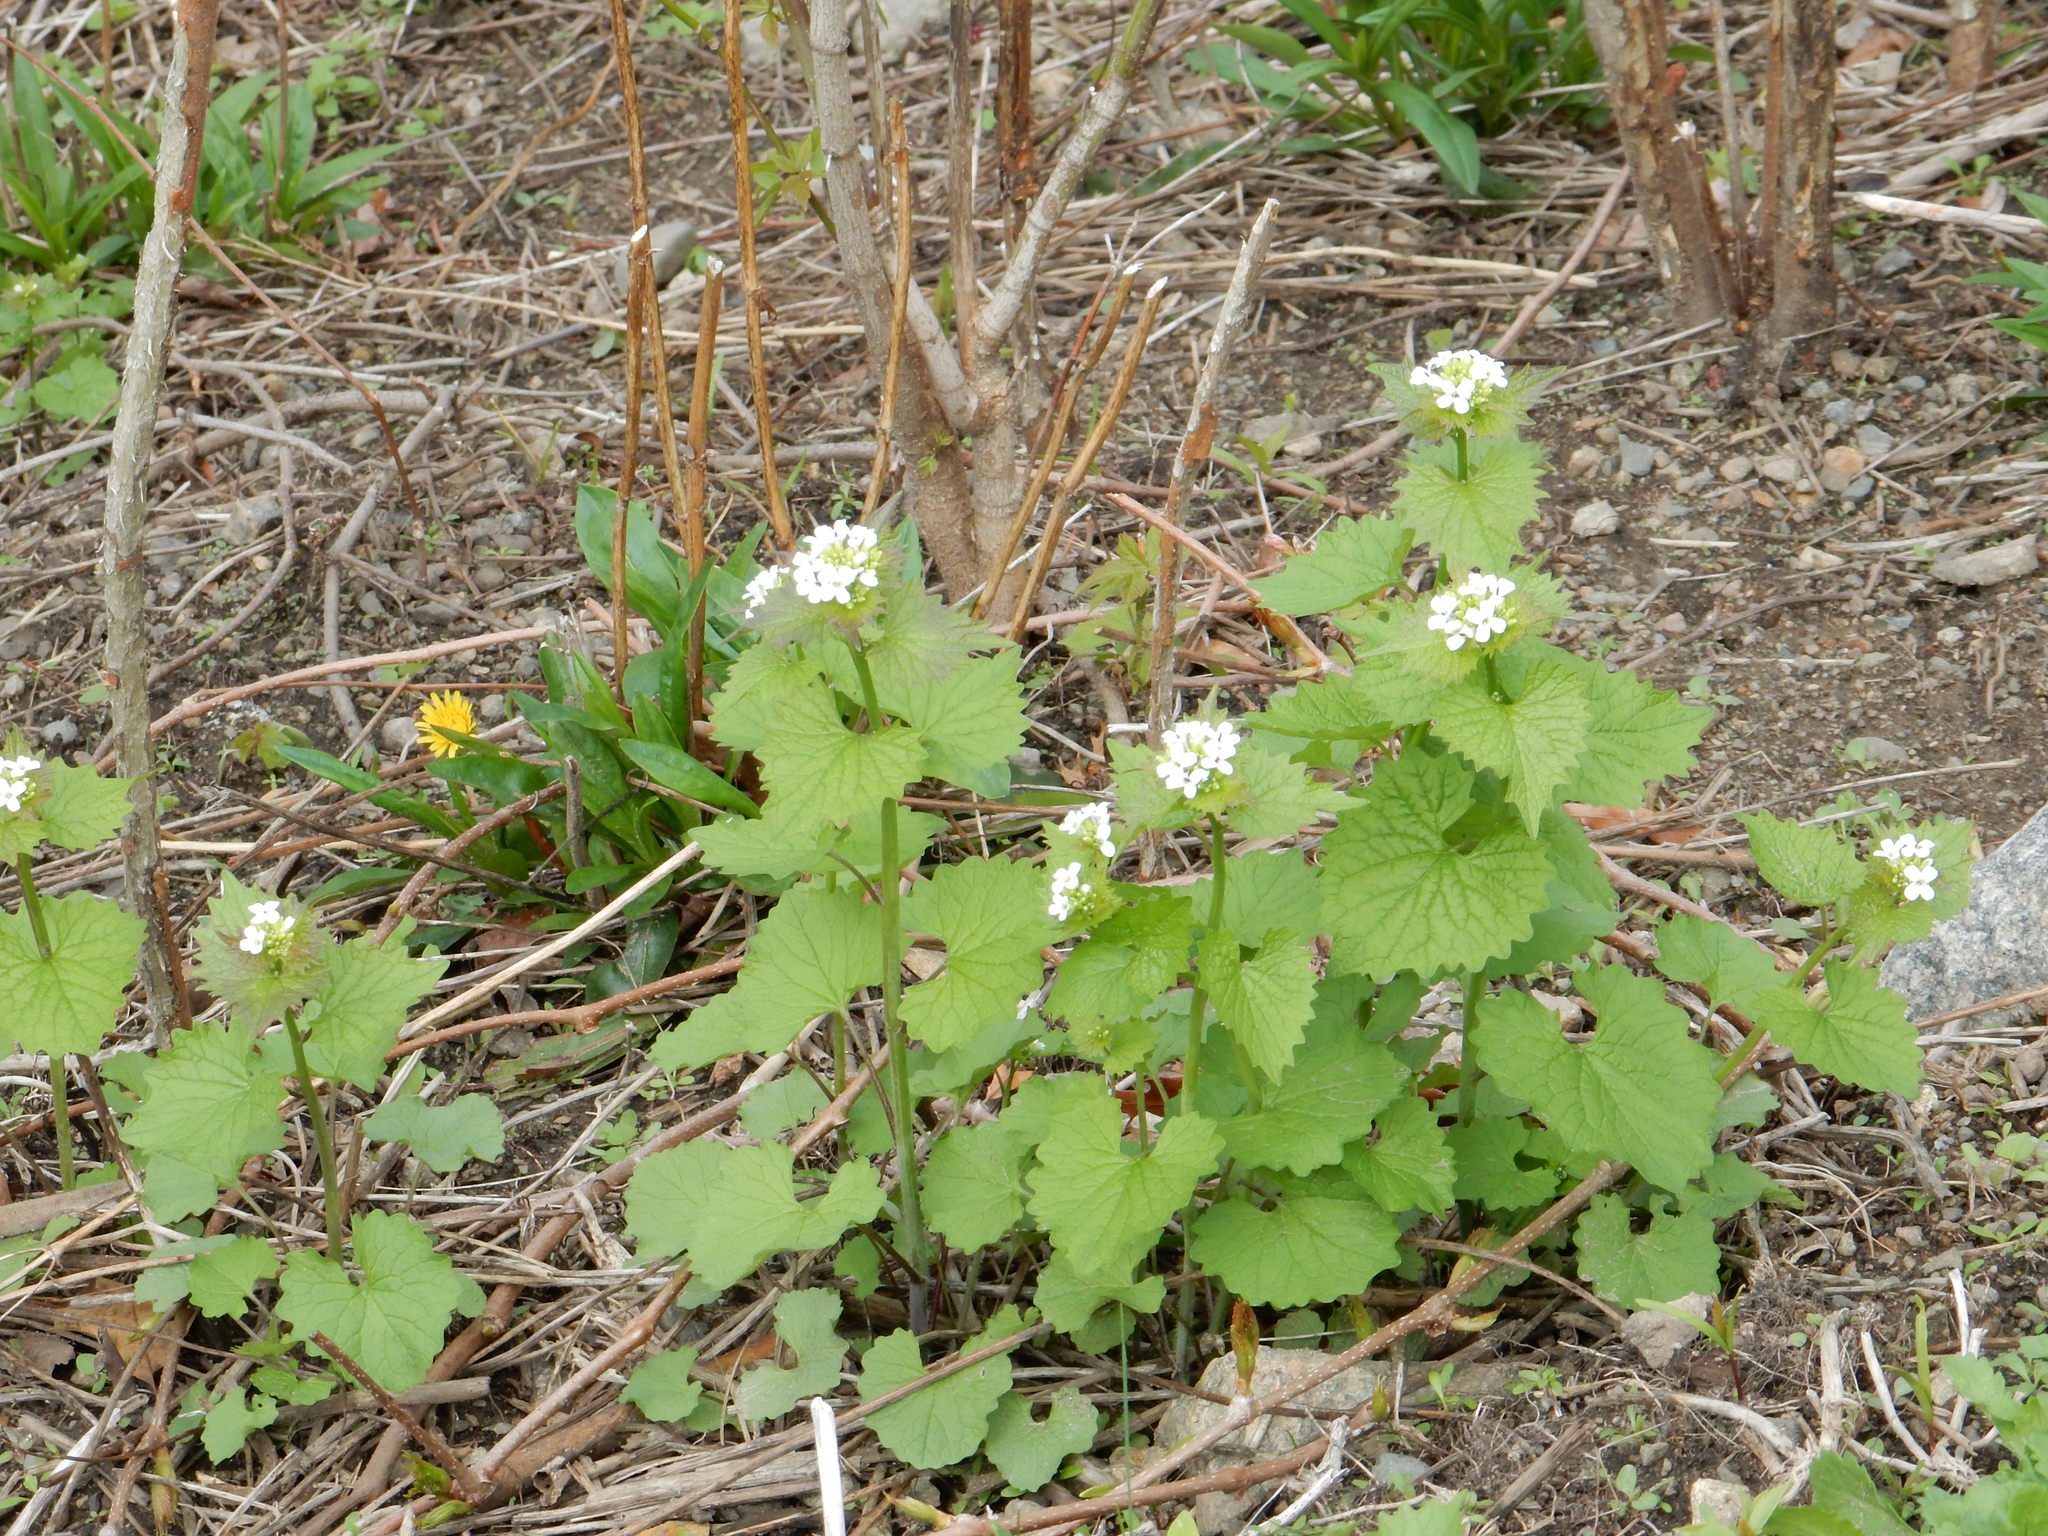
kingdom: Plantae
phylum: Tracheophyta
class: Magnoliopsida
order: Brassicales
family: Brassicaceae
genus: Alliaria
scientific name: Alliaria petiolata
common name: Garlic mustard
